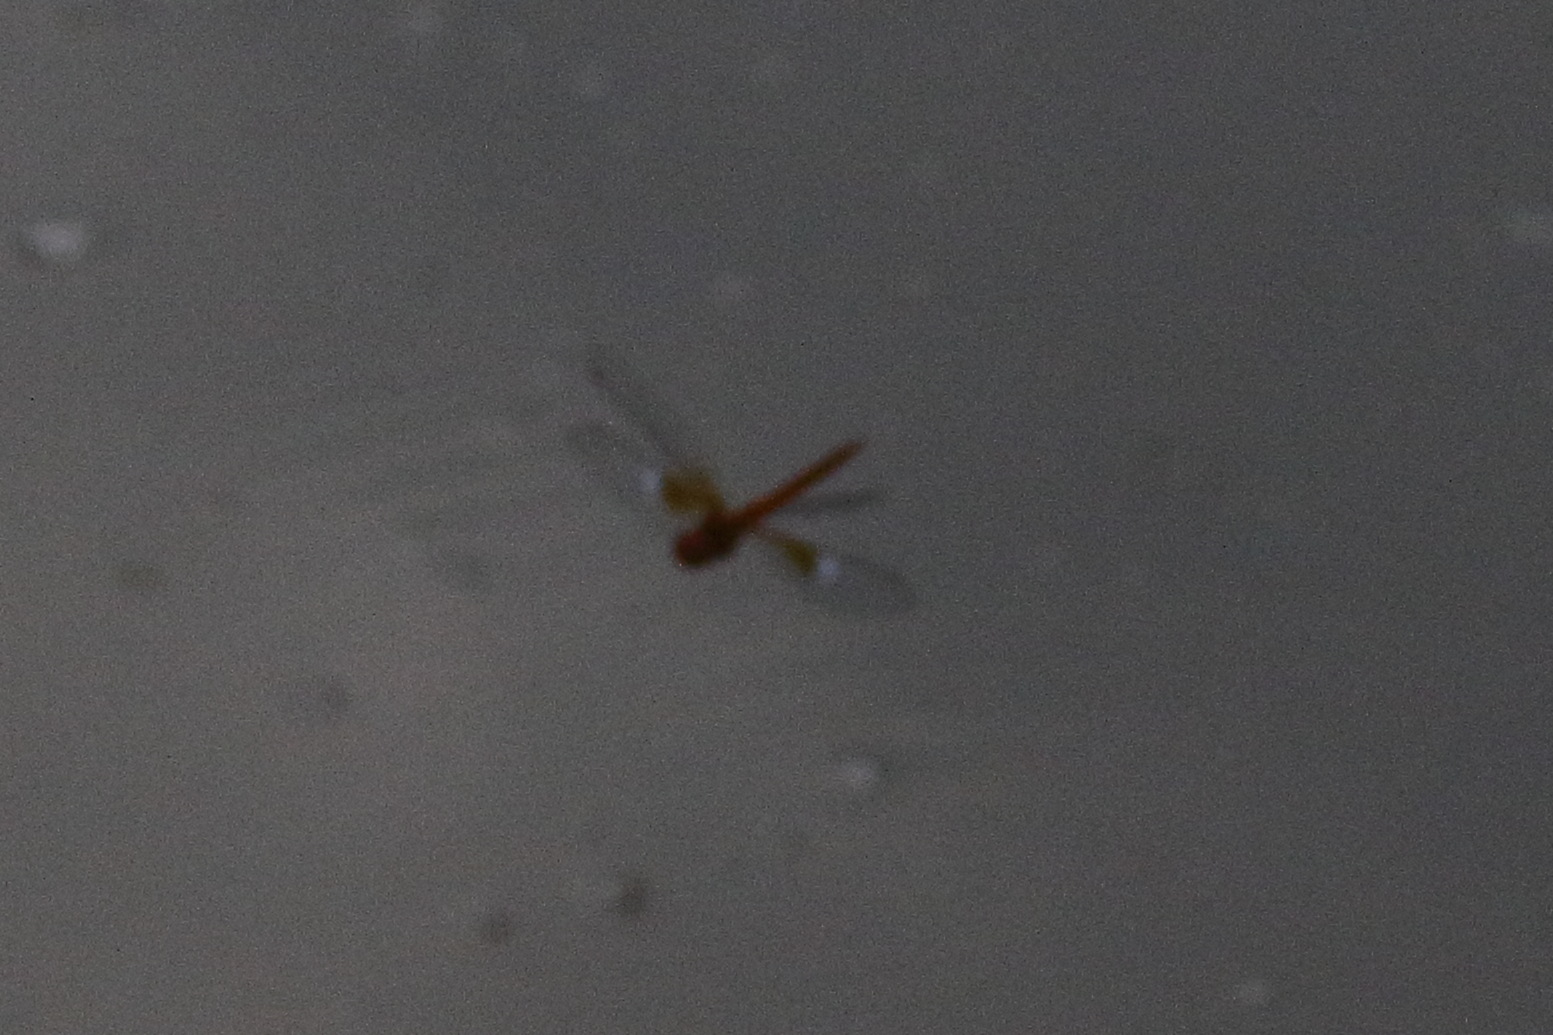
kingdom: Animalia
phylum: Arthropoda
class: Insecta
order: Odonata
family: Libellulidae
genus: Tholymis
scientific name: Tholymis tillarga
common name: Coral-tailed cloud wing
